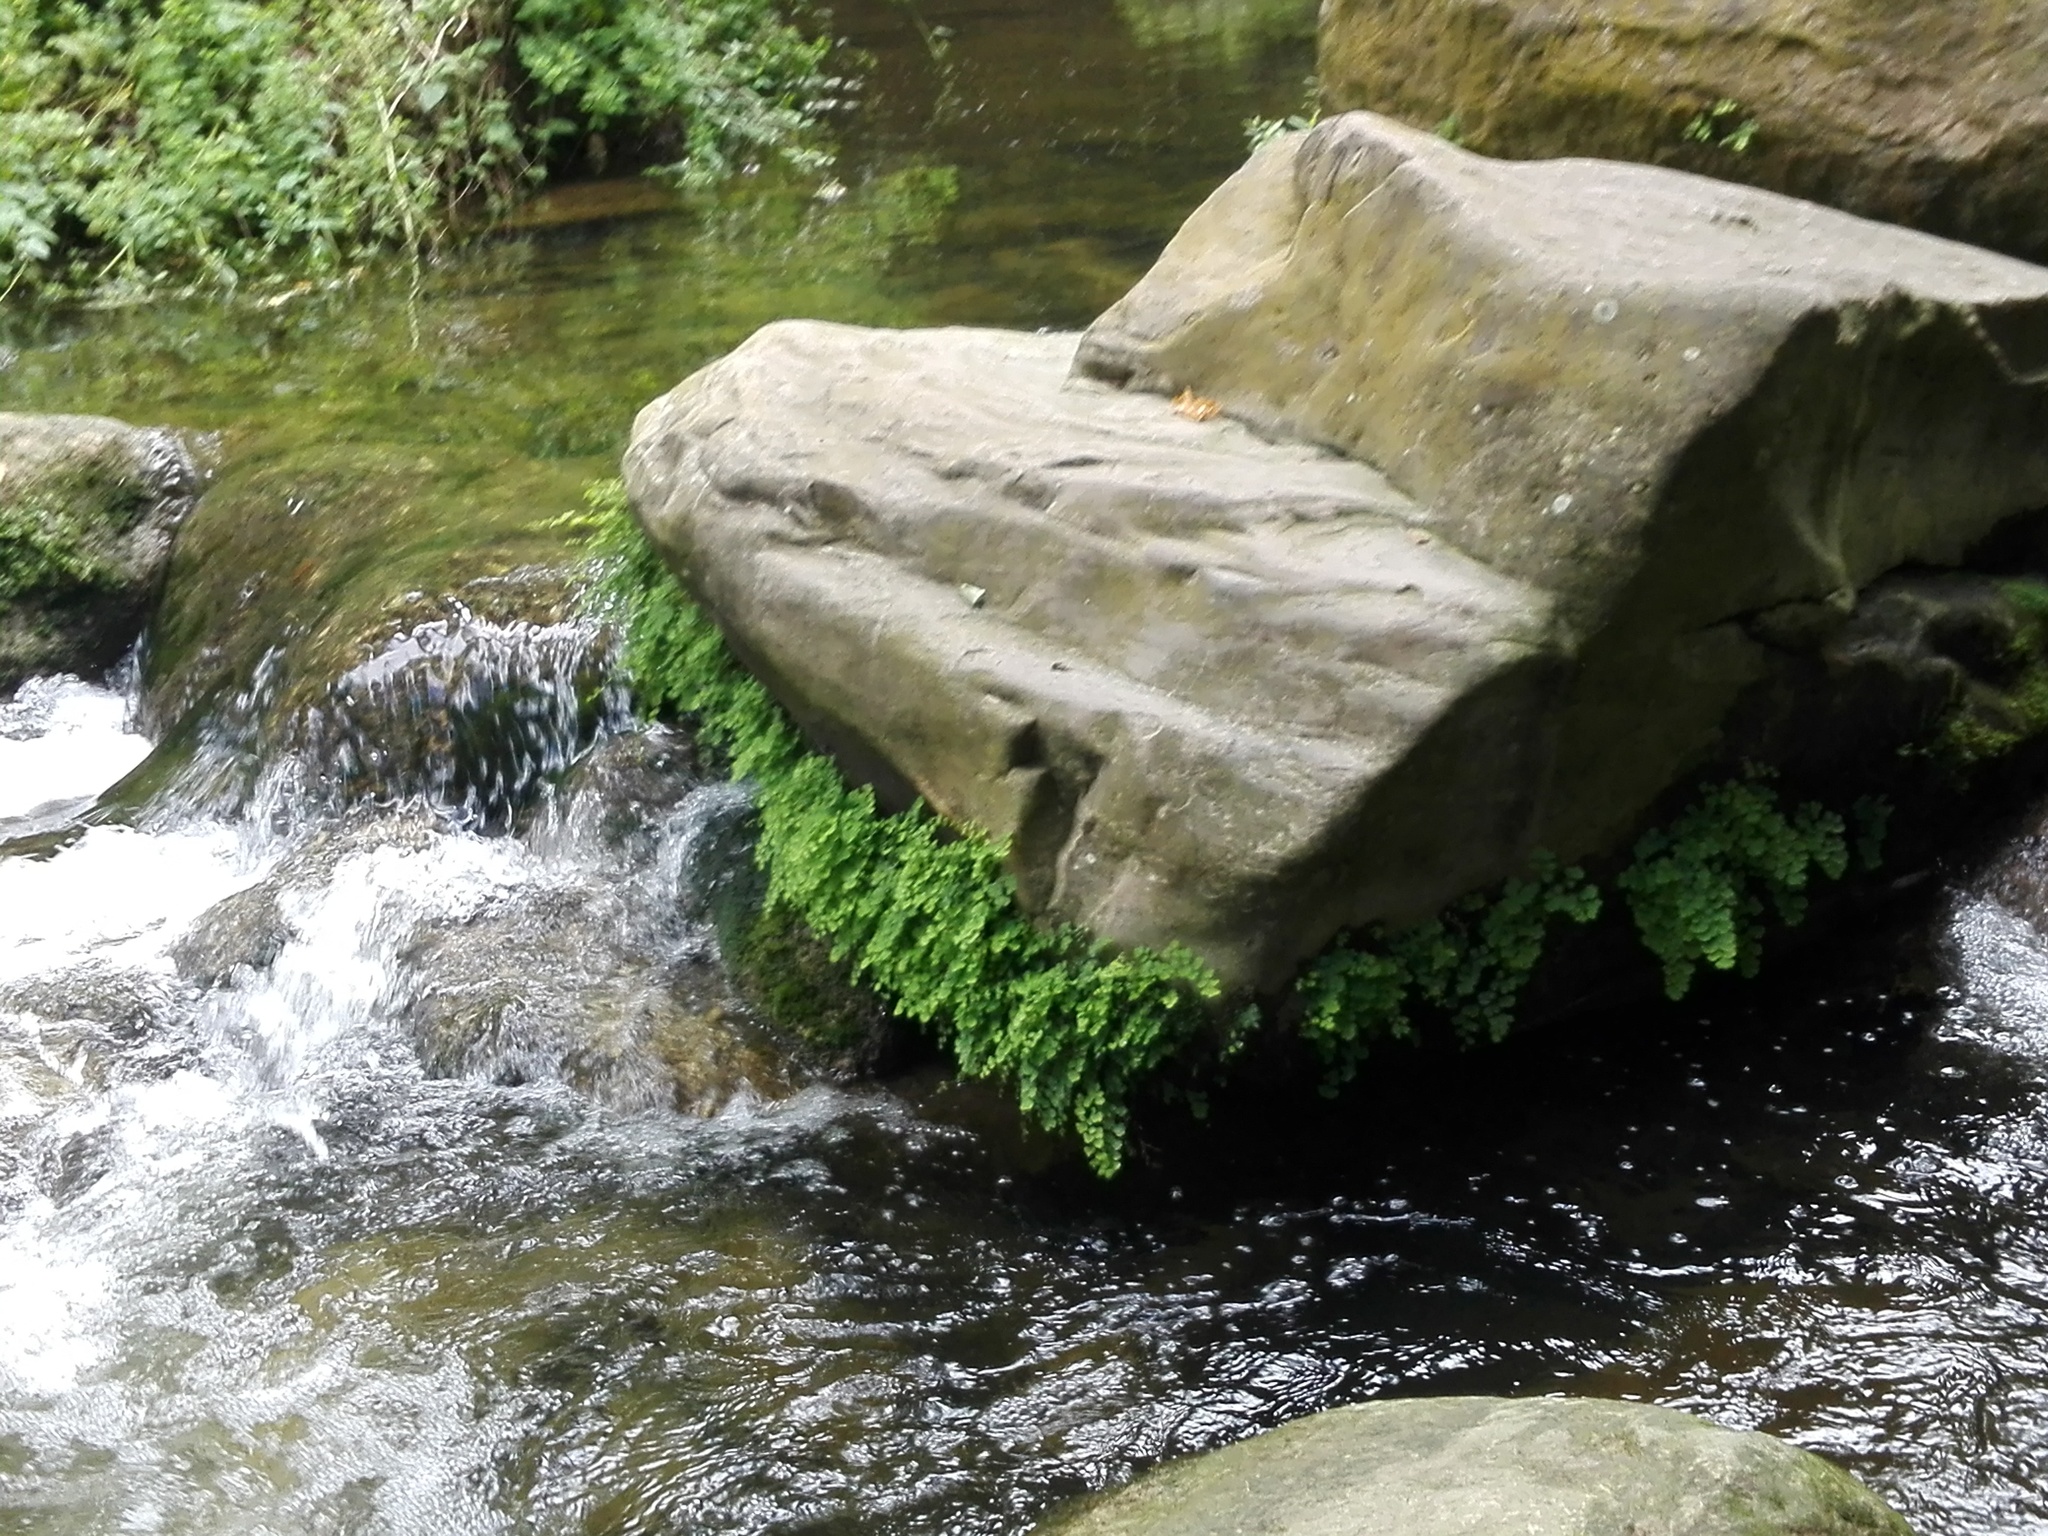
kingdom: Plantae
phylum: Tracheophyta
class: Polypodiopsida
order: Polypodiales
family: Pteridaceae
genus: Adiantum
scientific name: Adiantum capillus-veneris
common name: Maidenhair fern
